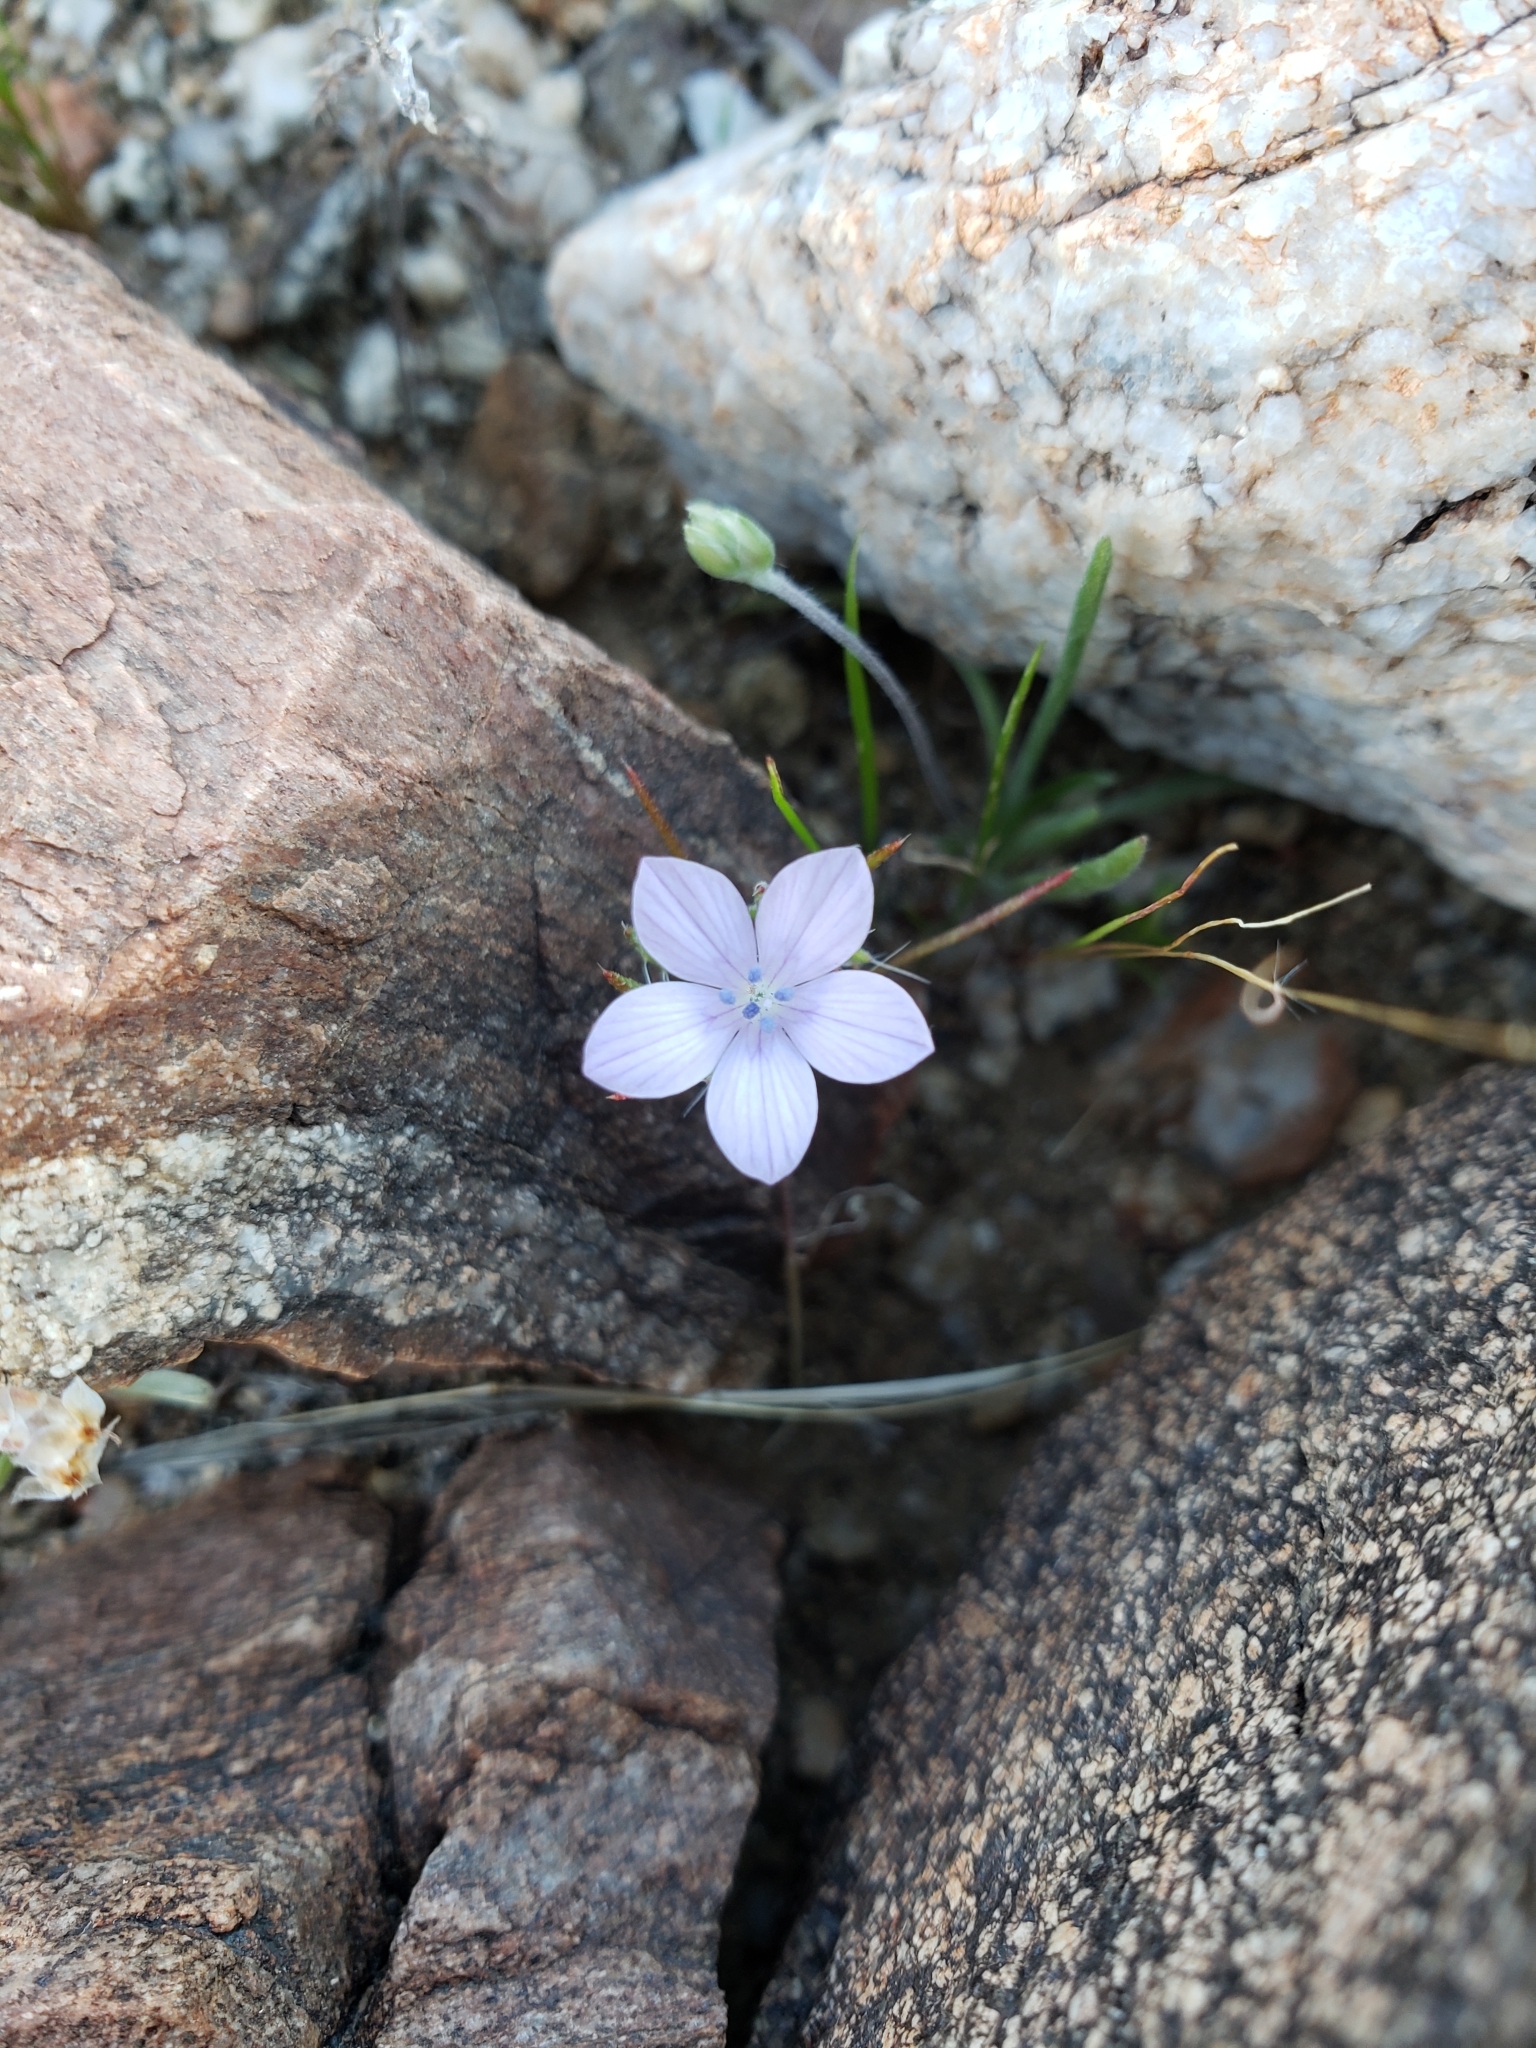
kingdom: Plantae
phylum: Tracheophyta
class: Magnoliopsida
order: Ericales
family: Polemoniaceae
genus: Langloisia
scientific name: Langloisia setosissima
